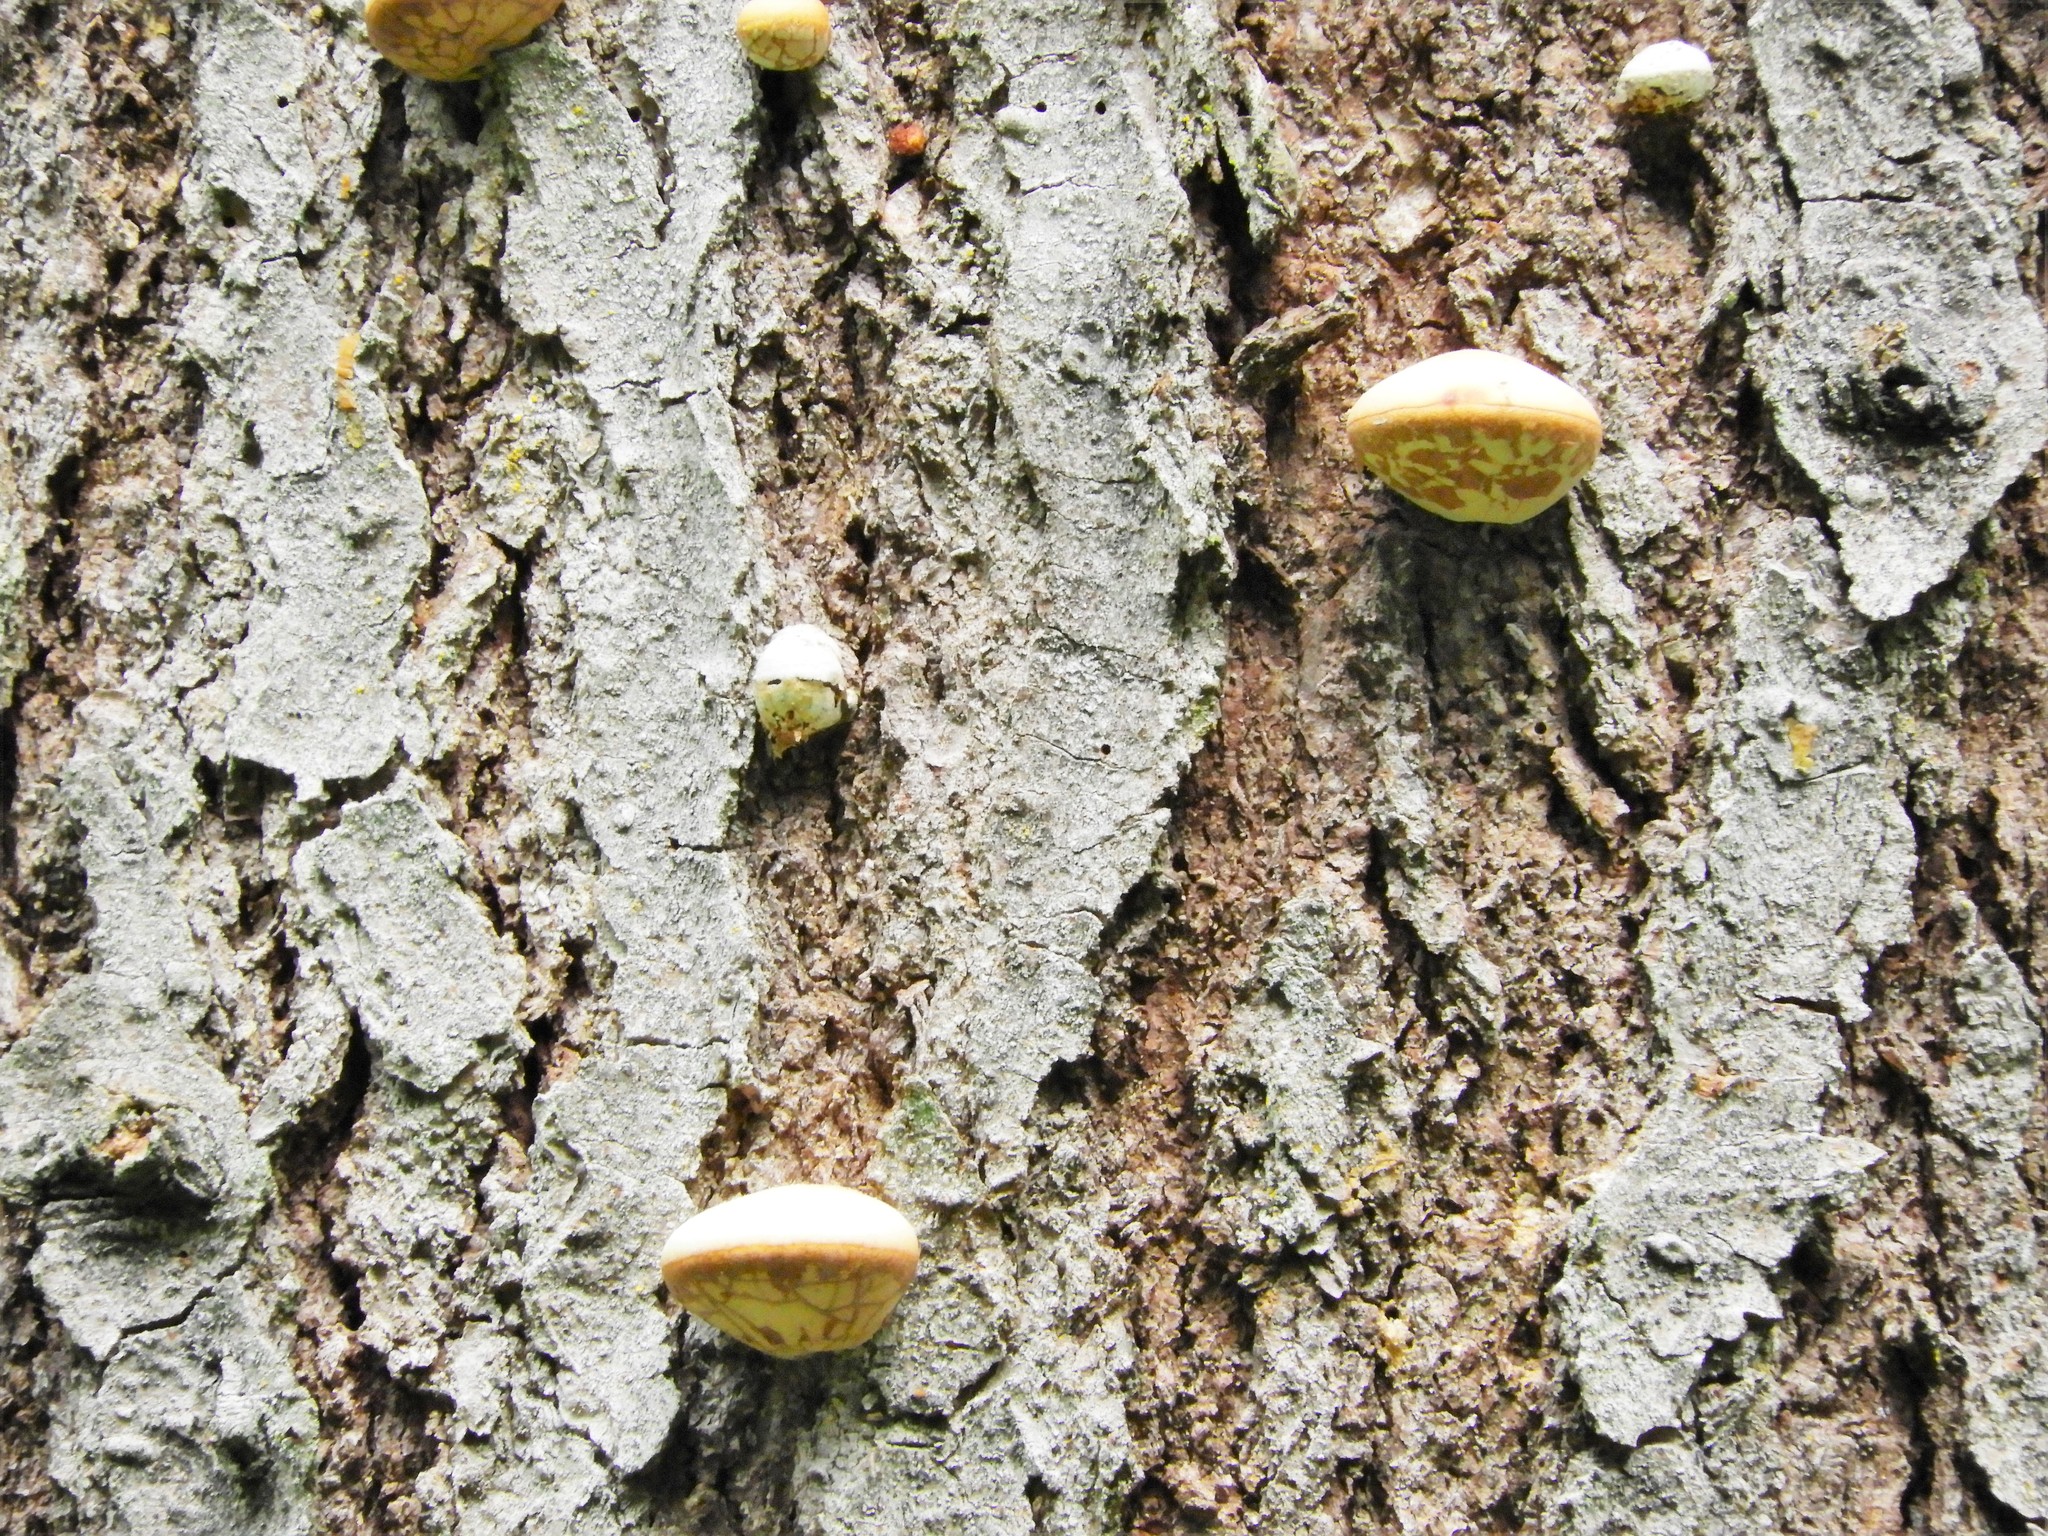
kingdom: Fungi
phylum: Basidiomycota
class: Agaricomycetes
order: Polyporales
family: Polyporaceae
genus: Cryptoporus
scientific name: Cryptoporus volvatus
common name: Veiled polypore
